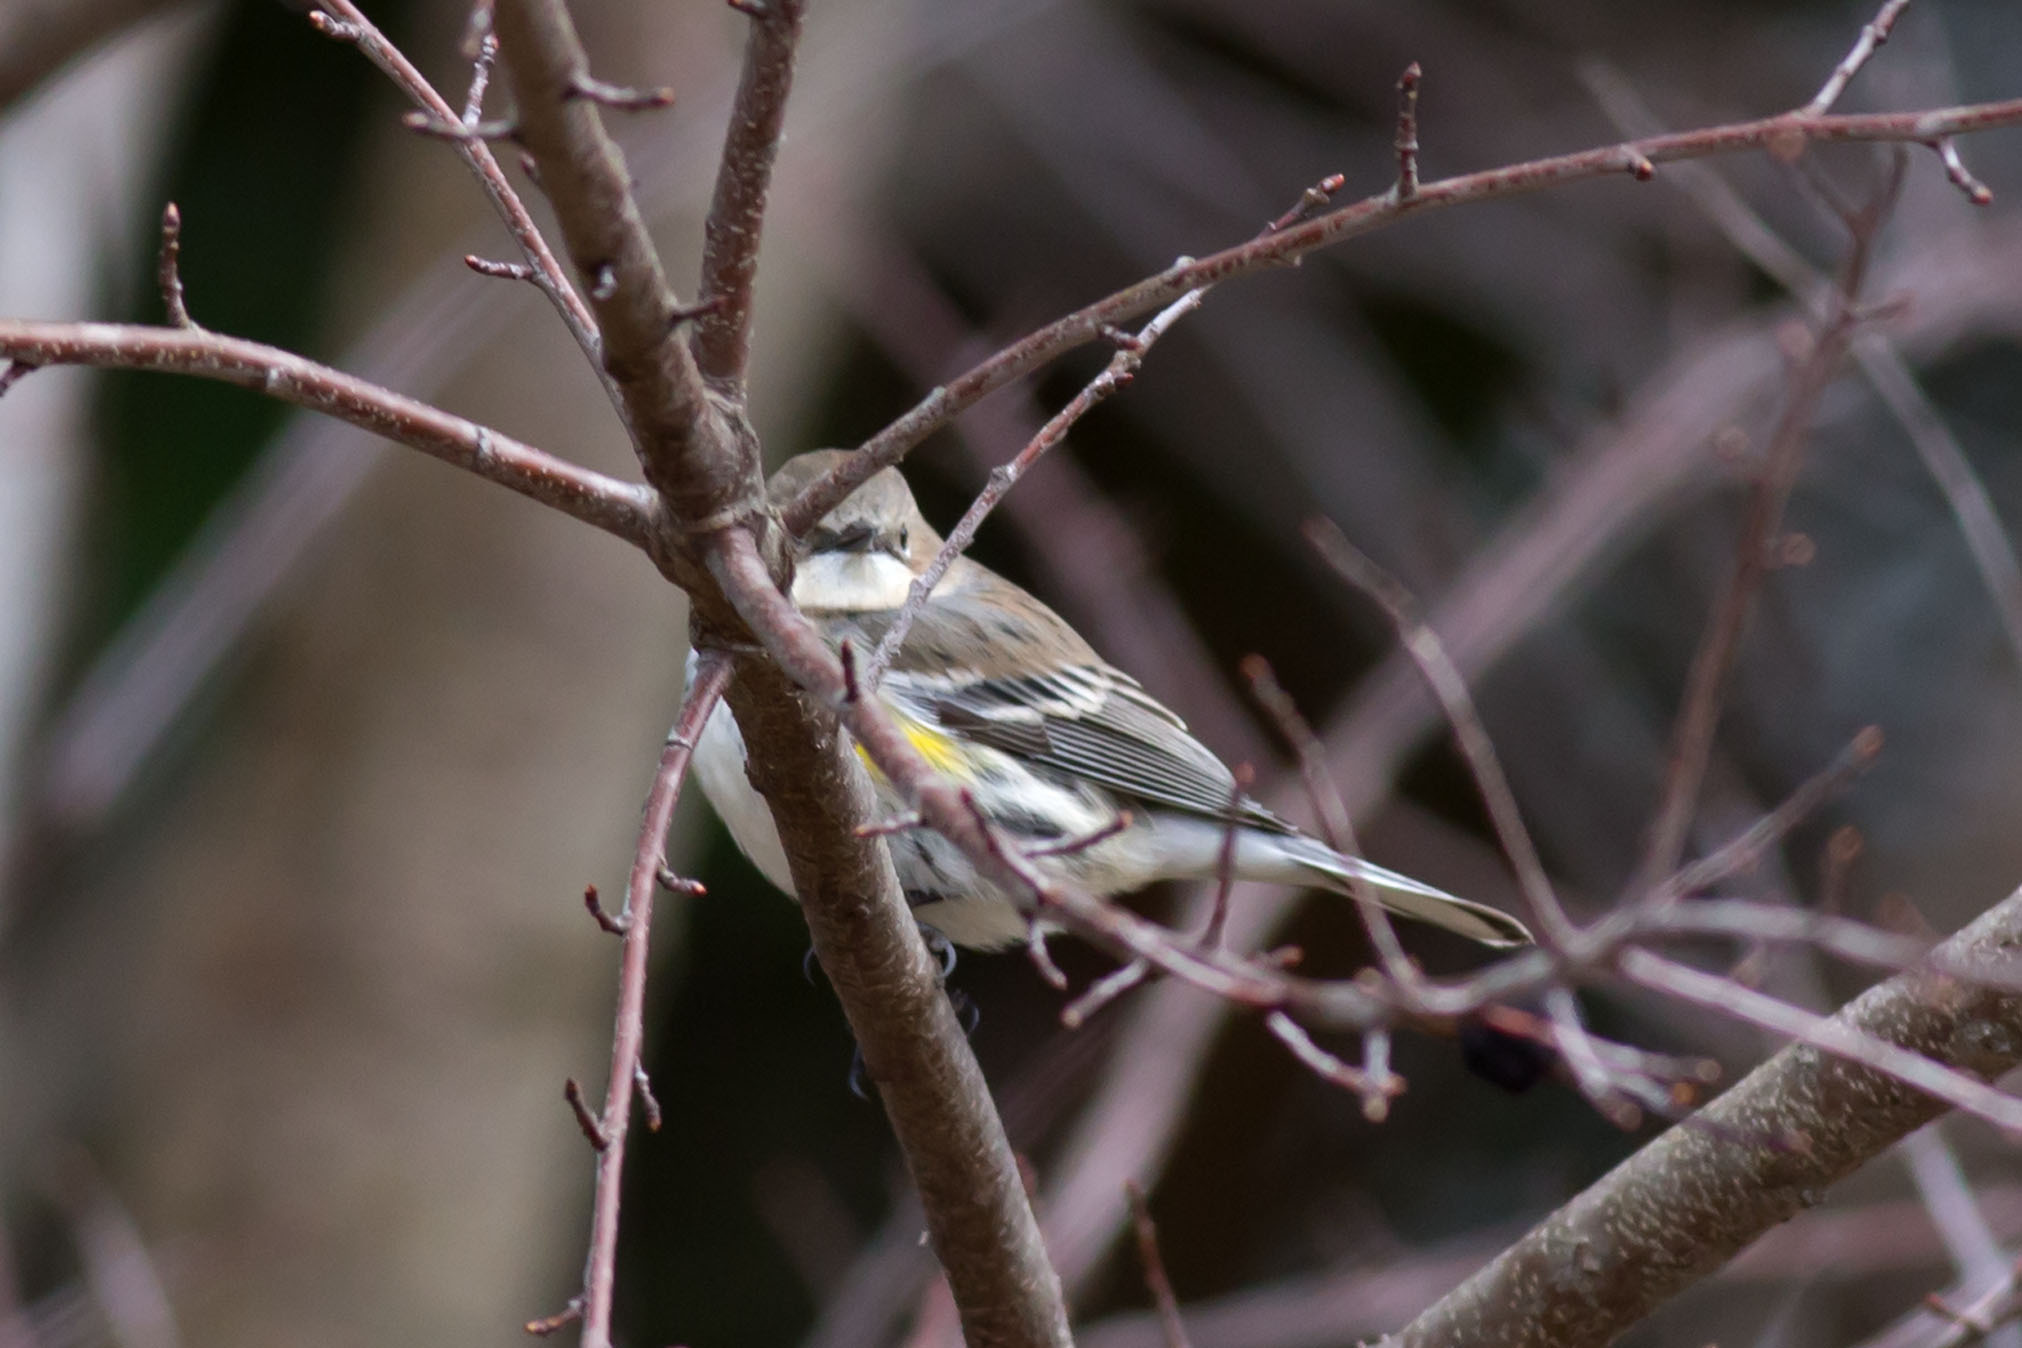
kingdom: Animalia
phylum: Chordata
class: Aves
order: Passeriformes
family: Parulidae
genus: Setophaga
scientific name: Setophaga coronata
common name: Myrtle warbler
